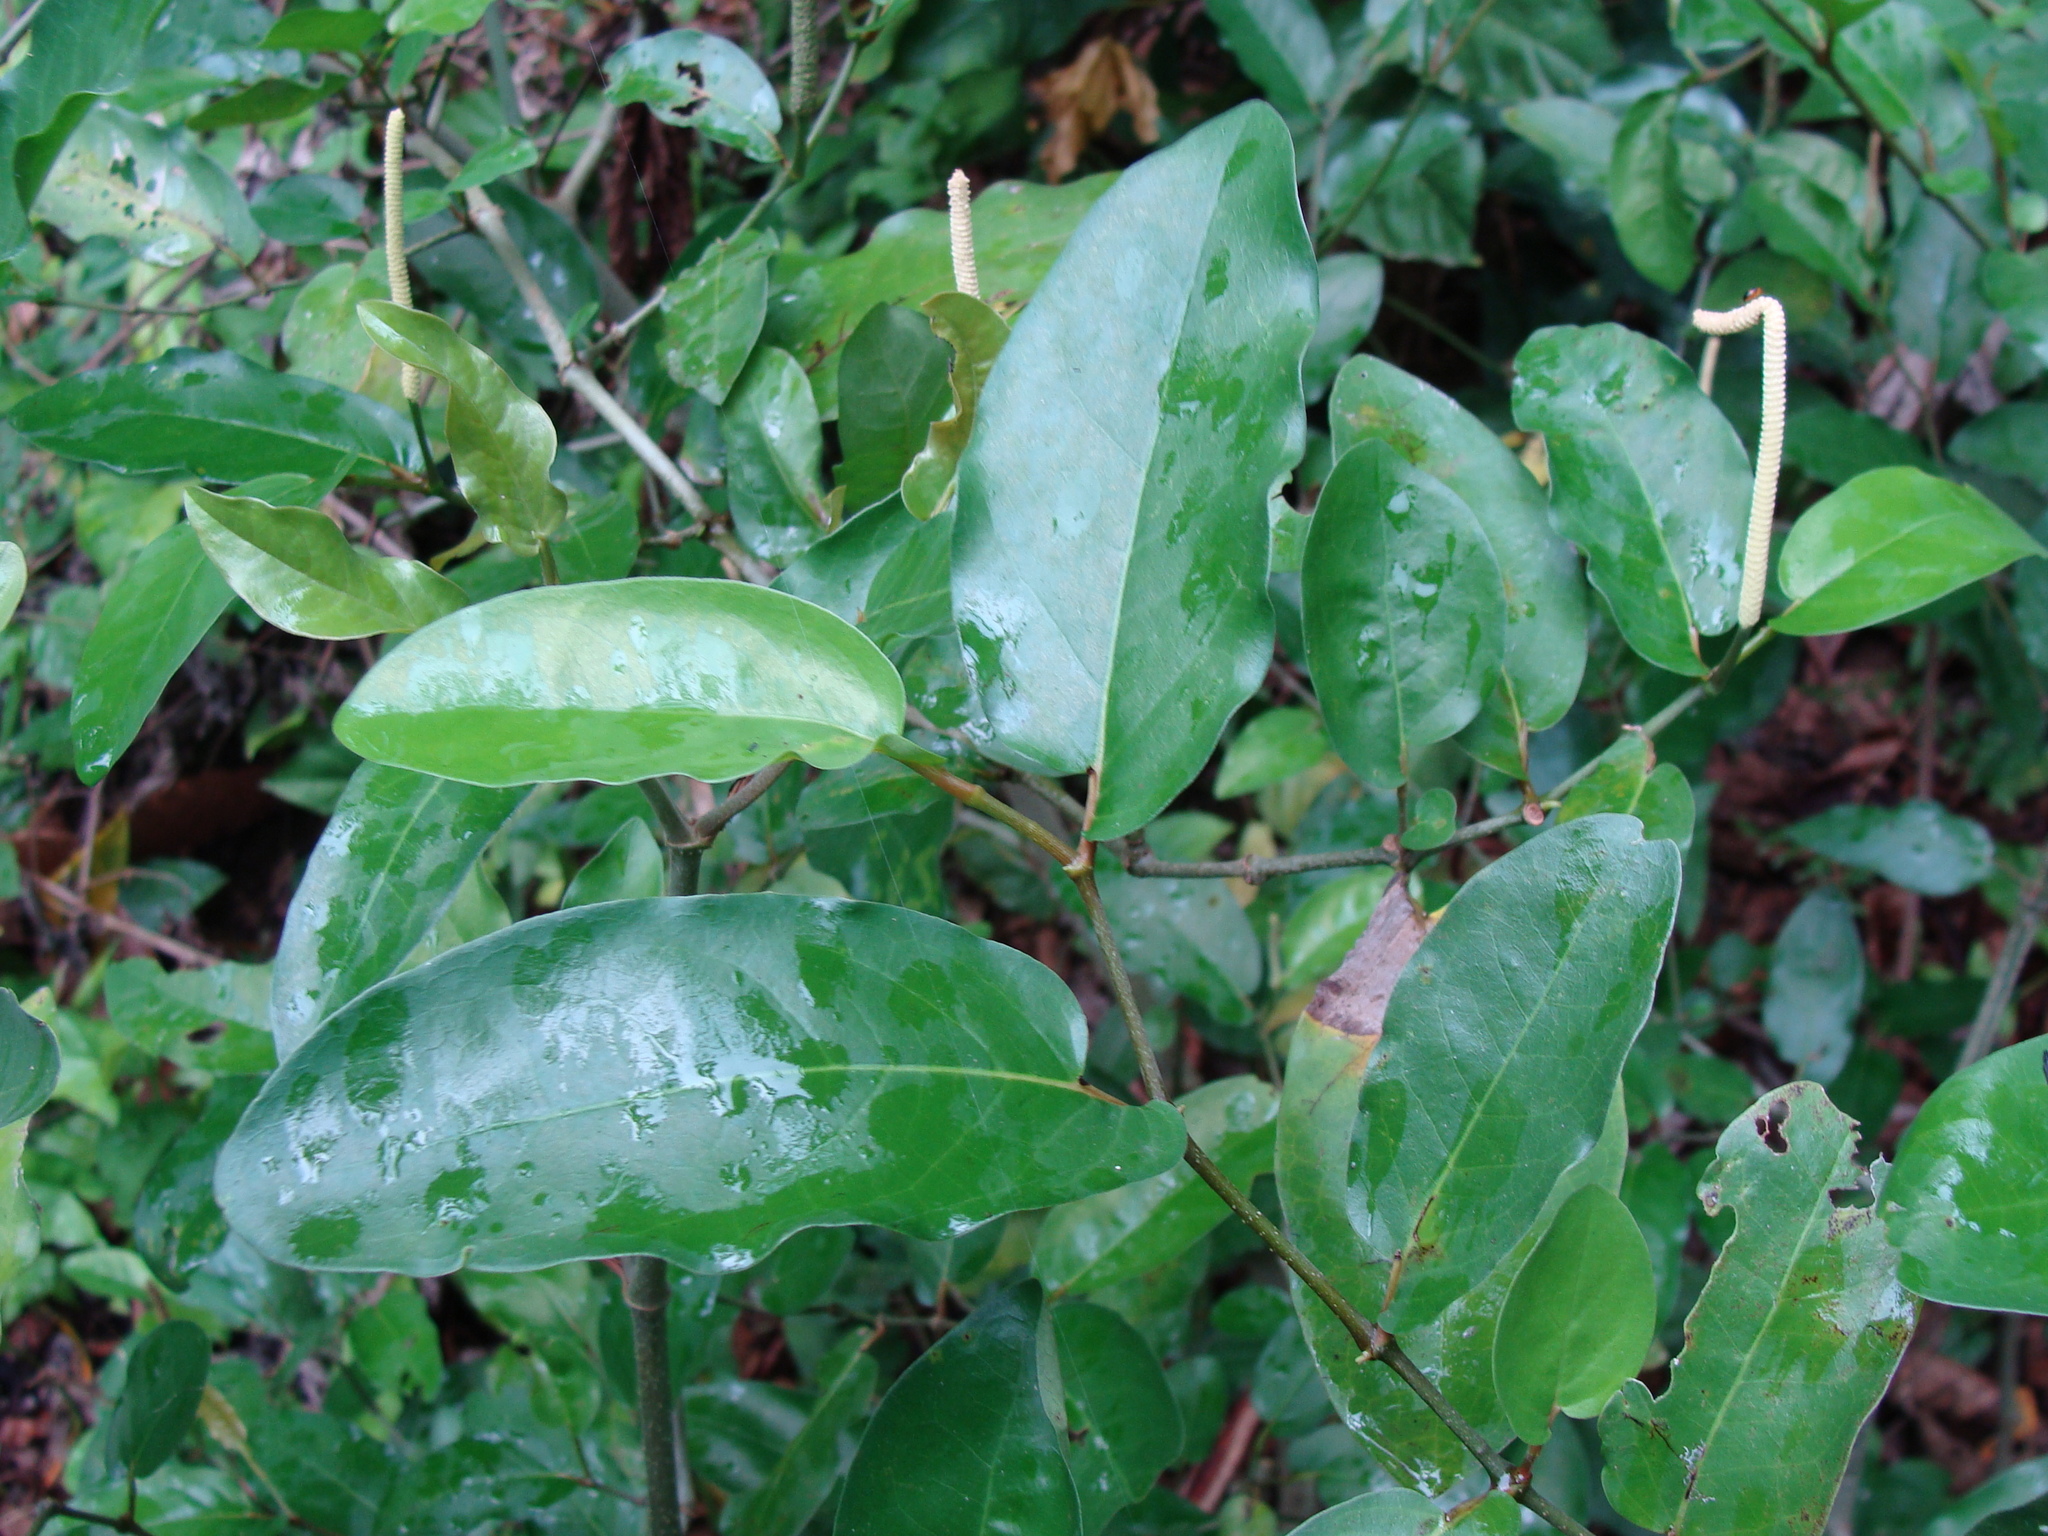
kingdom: Plantae
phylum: Tracheophyta
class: Magnoliopsida
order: Piperales
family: Piperaceae
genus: Piper
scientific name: Piper tuberculatum
